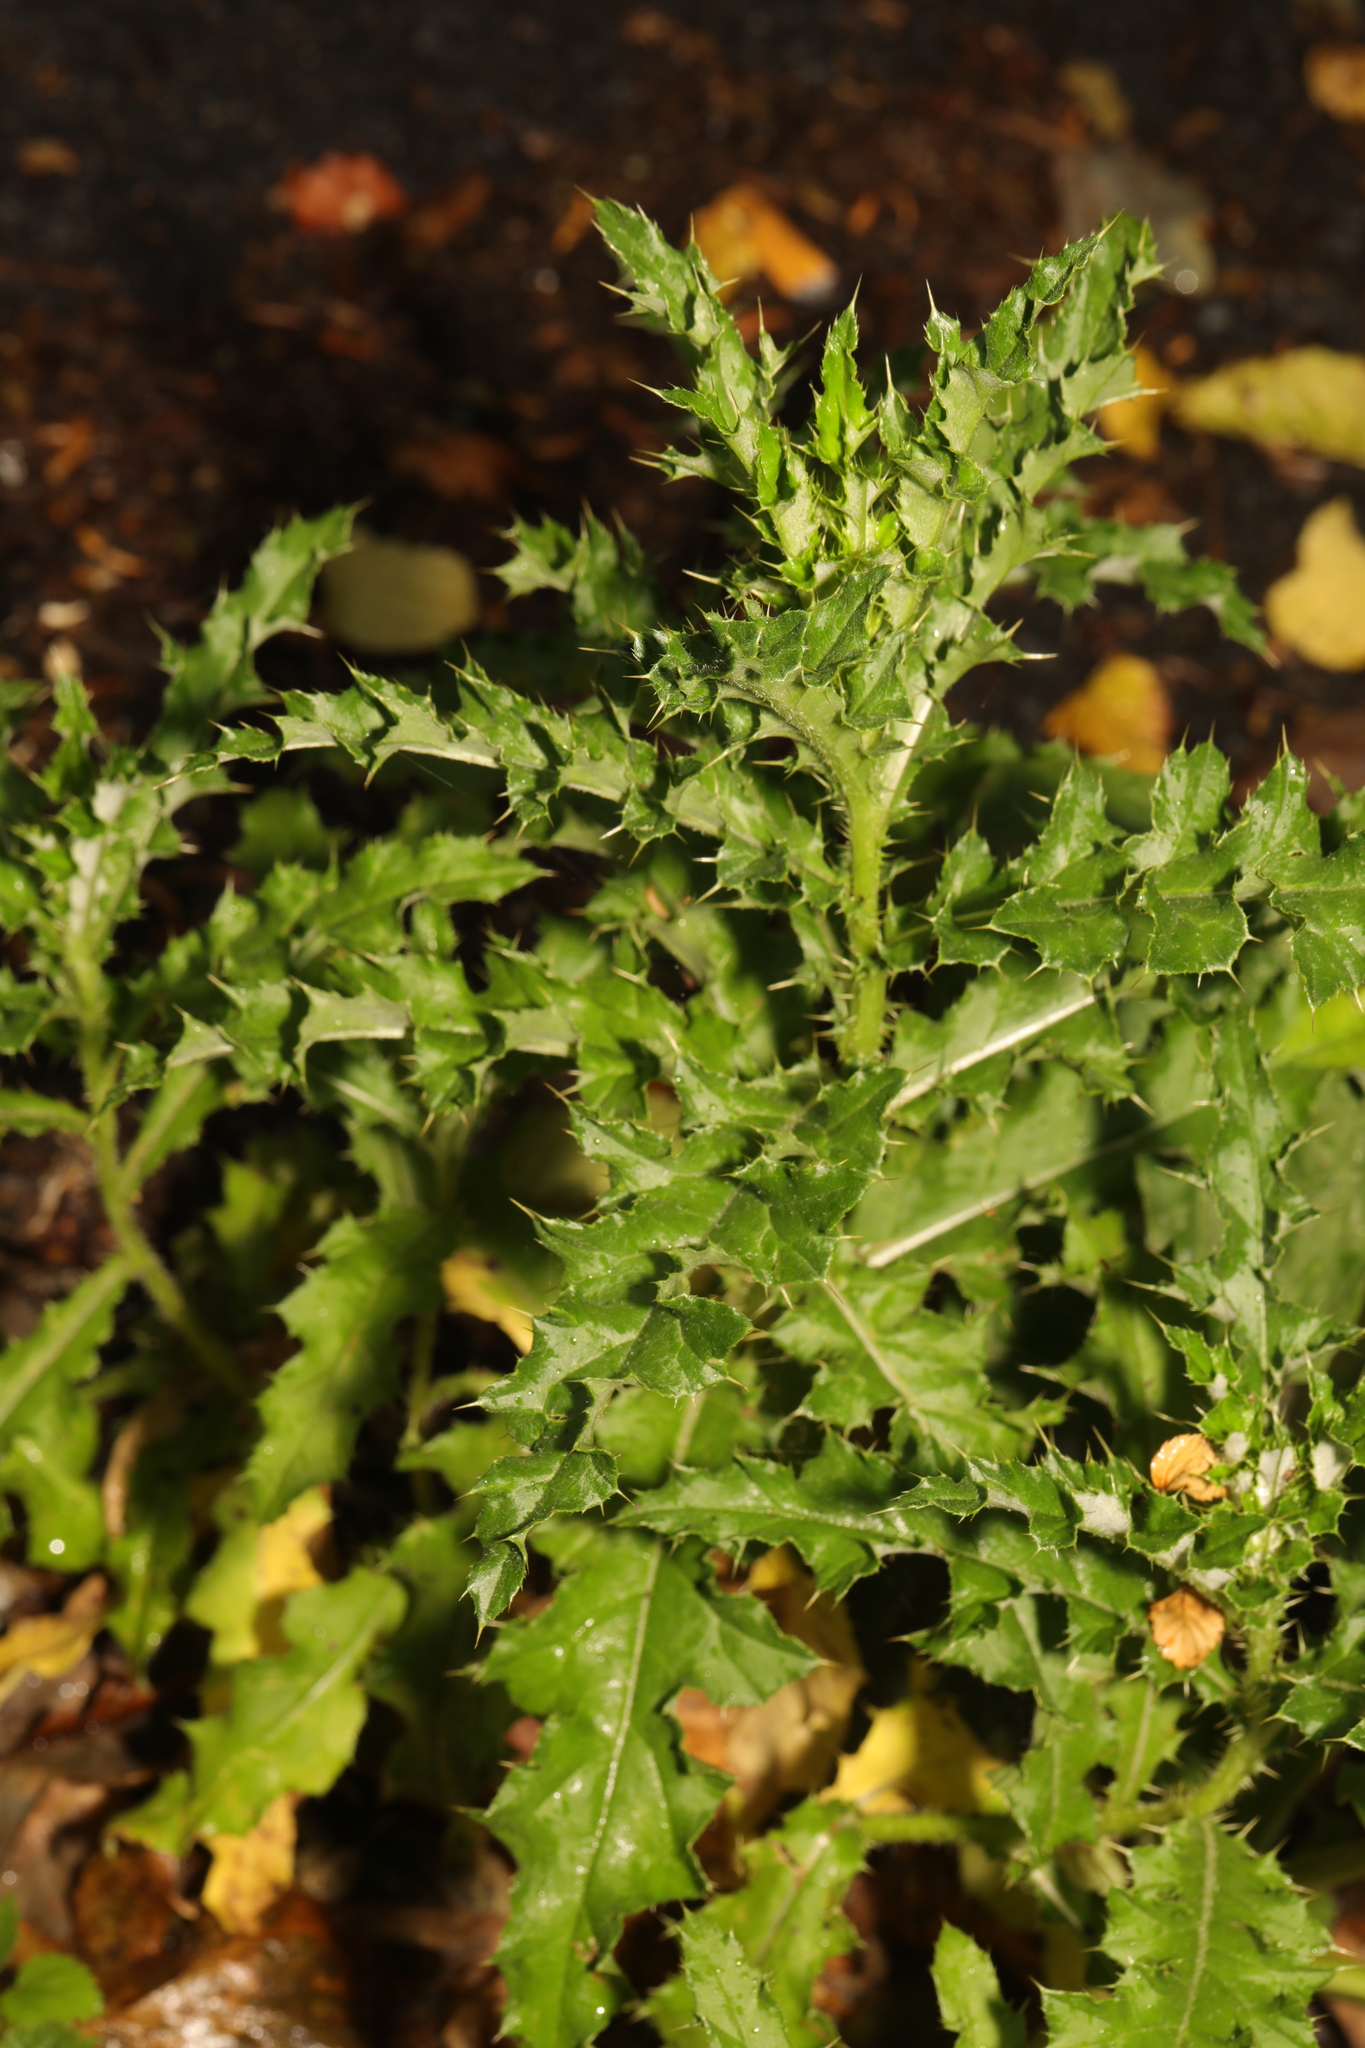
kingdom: Plantae
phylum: Tracheophyta
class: Magnoliopsida
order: Asterales
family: Asteraceae
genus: Cirsium
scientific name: Cirsium arvense
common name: Creeping thistle
